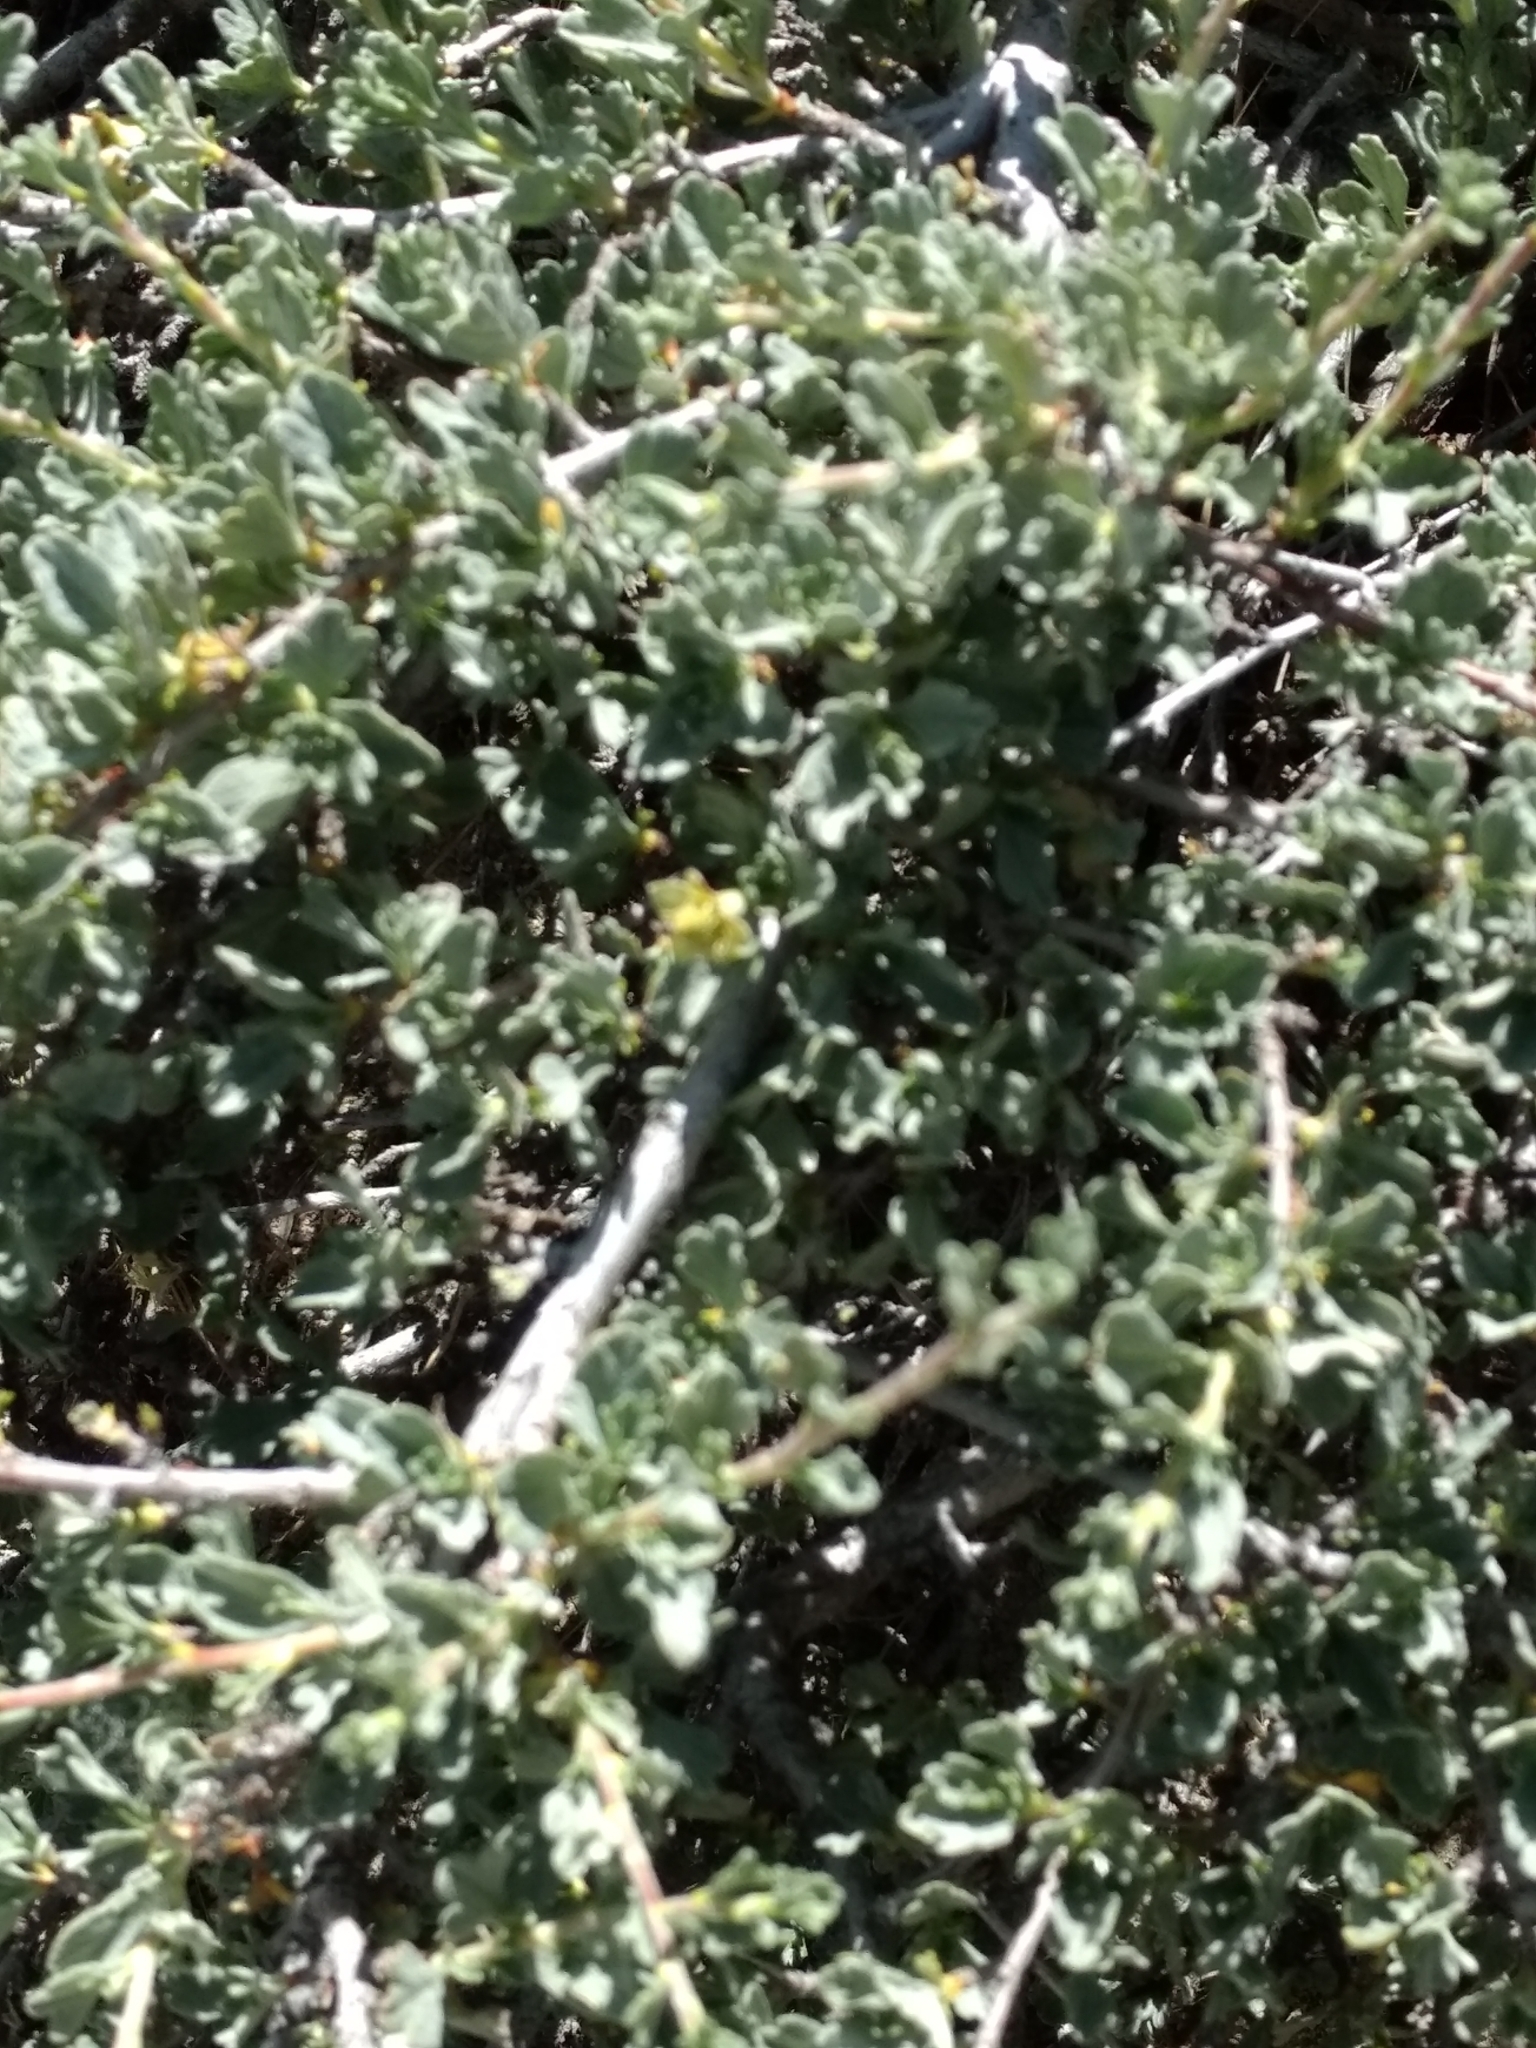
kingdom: Plantae
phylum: Tracheophyta
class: Magnoliopsida
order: Rosales
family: Rosaceae
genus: Purshia
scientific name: Purshia tridentata
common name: Antelope bitterbrush
